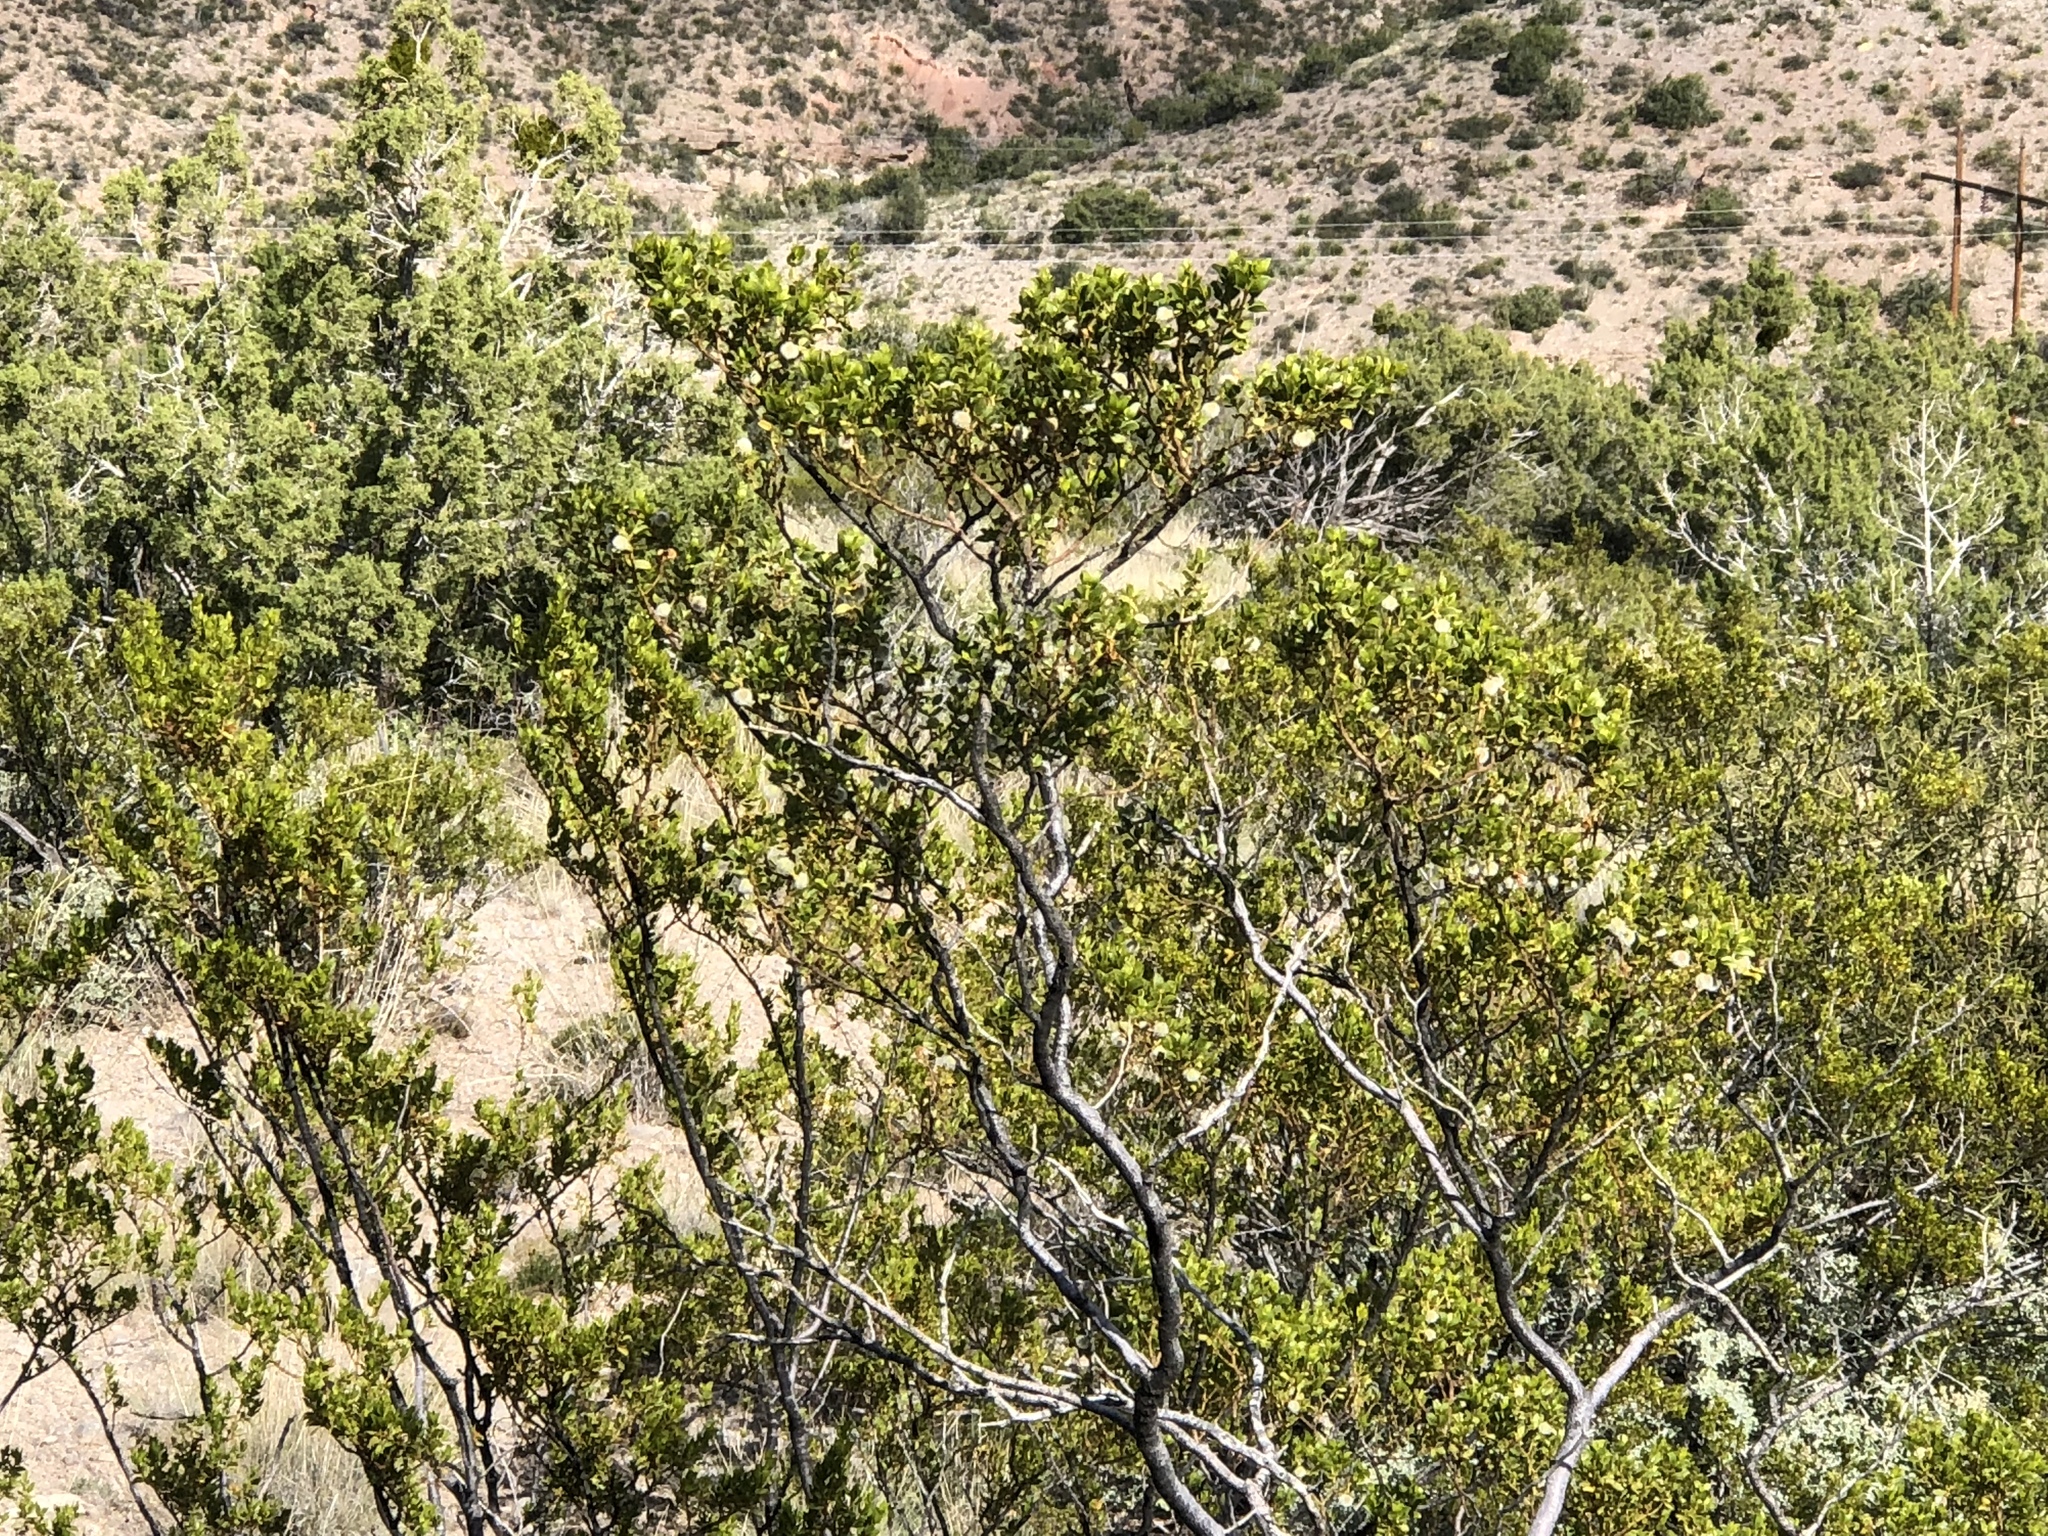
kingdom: Plantae
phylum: Tracheophyta
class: Magnoliopsida
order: Zygophyllales
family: Zygophyllaceae
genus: Larrea
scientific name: Larrea tridentata
